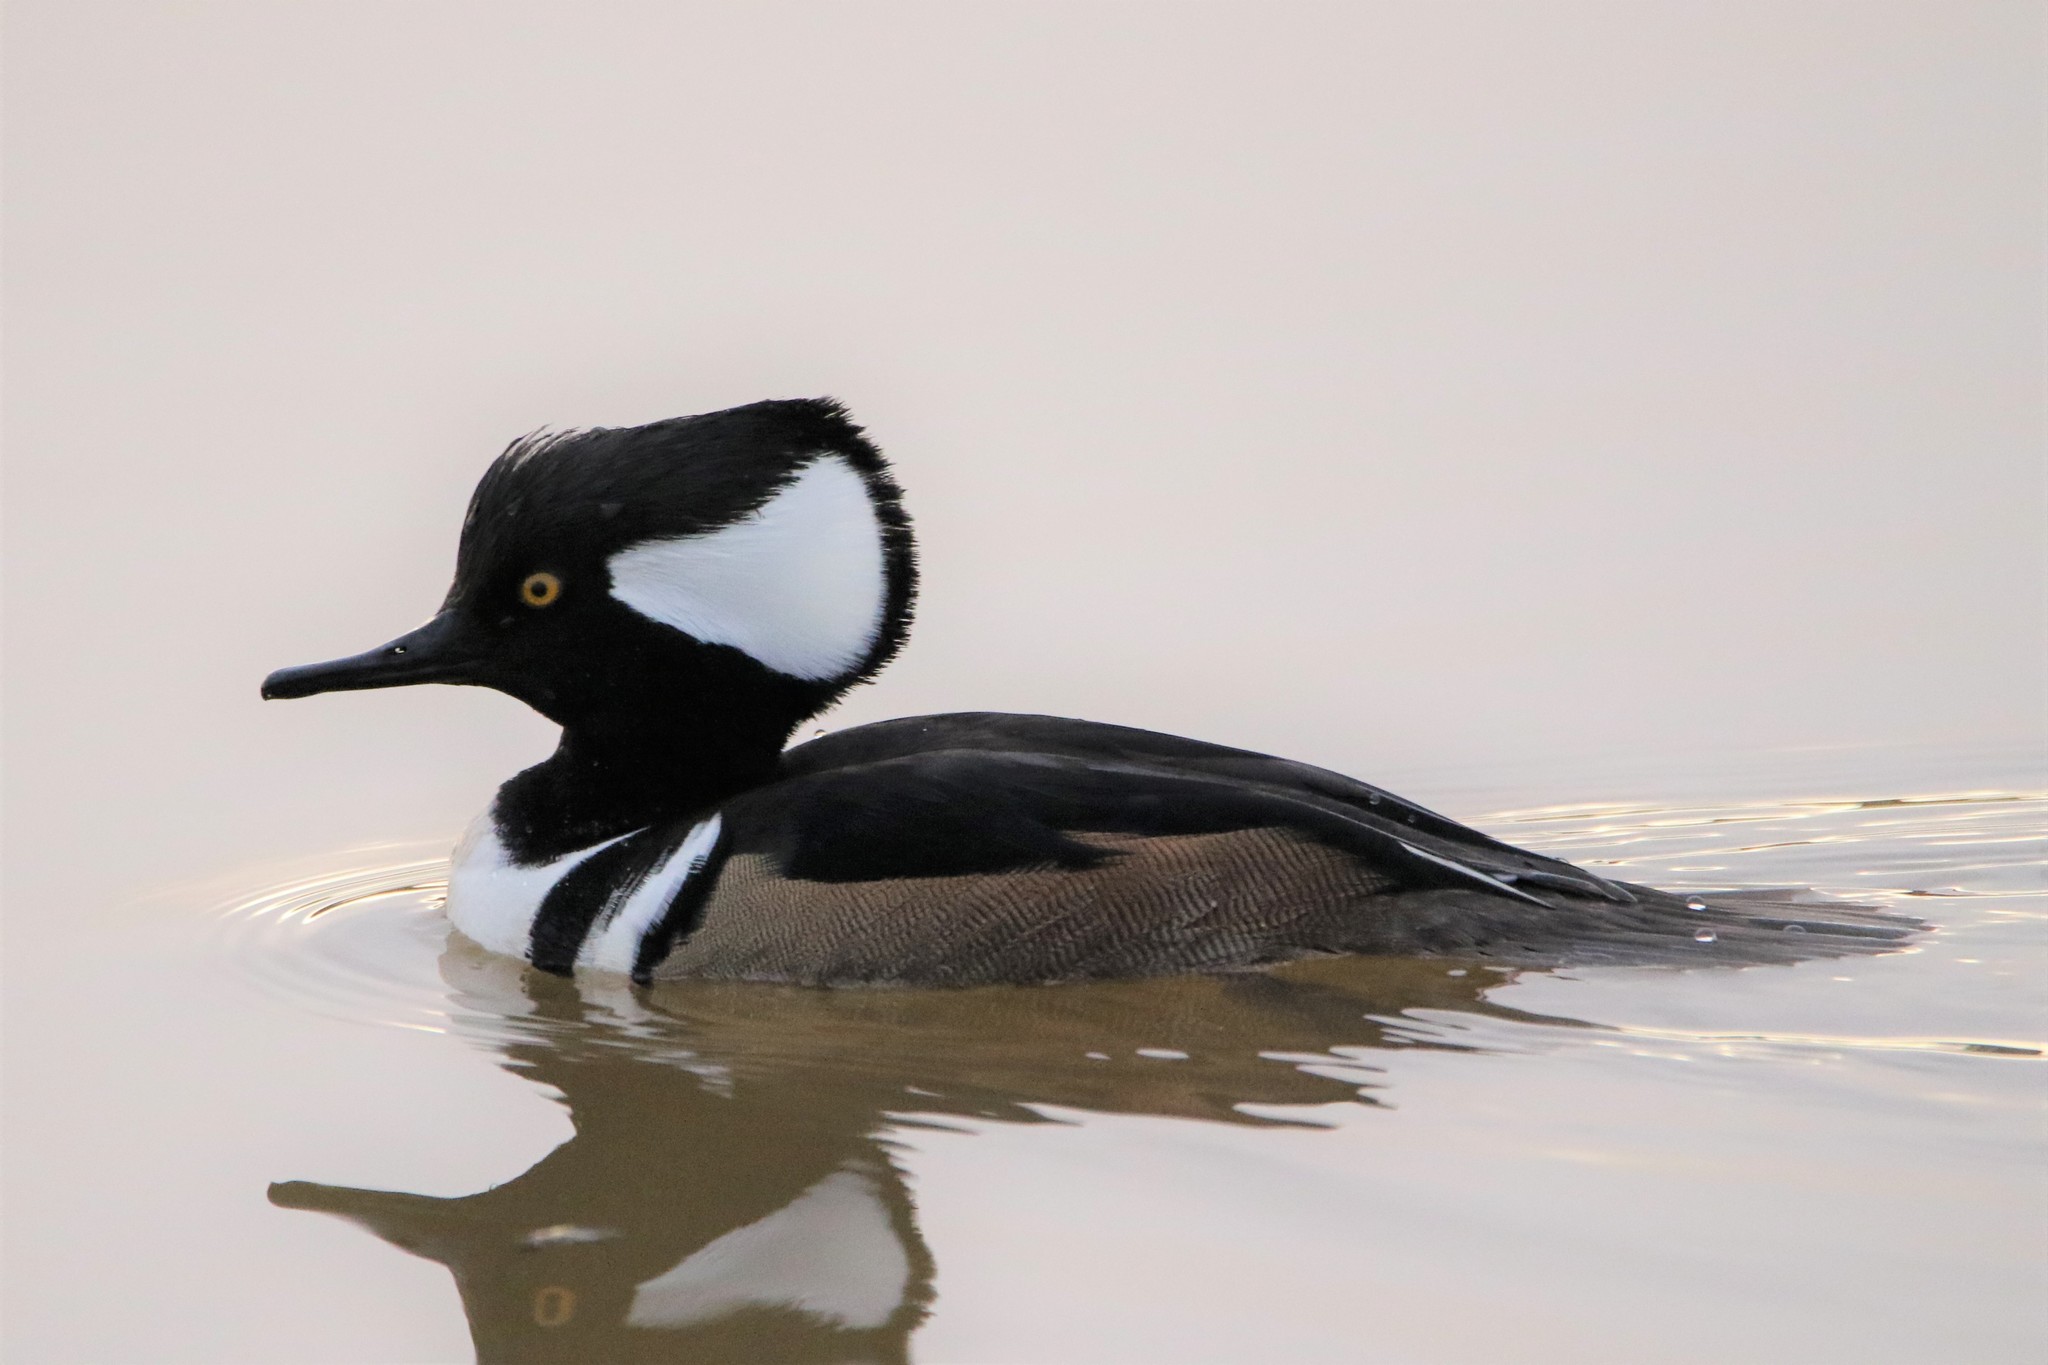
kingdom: Animalia
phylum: Chordata
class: Aves
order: Anseriformes
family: Anatidae
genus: Lophodytes
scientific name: Lophodytes cucullatus
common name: Hooded merganser
